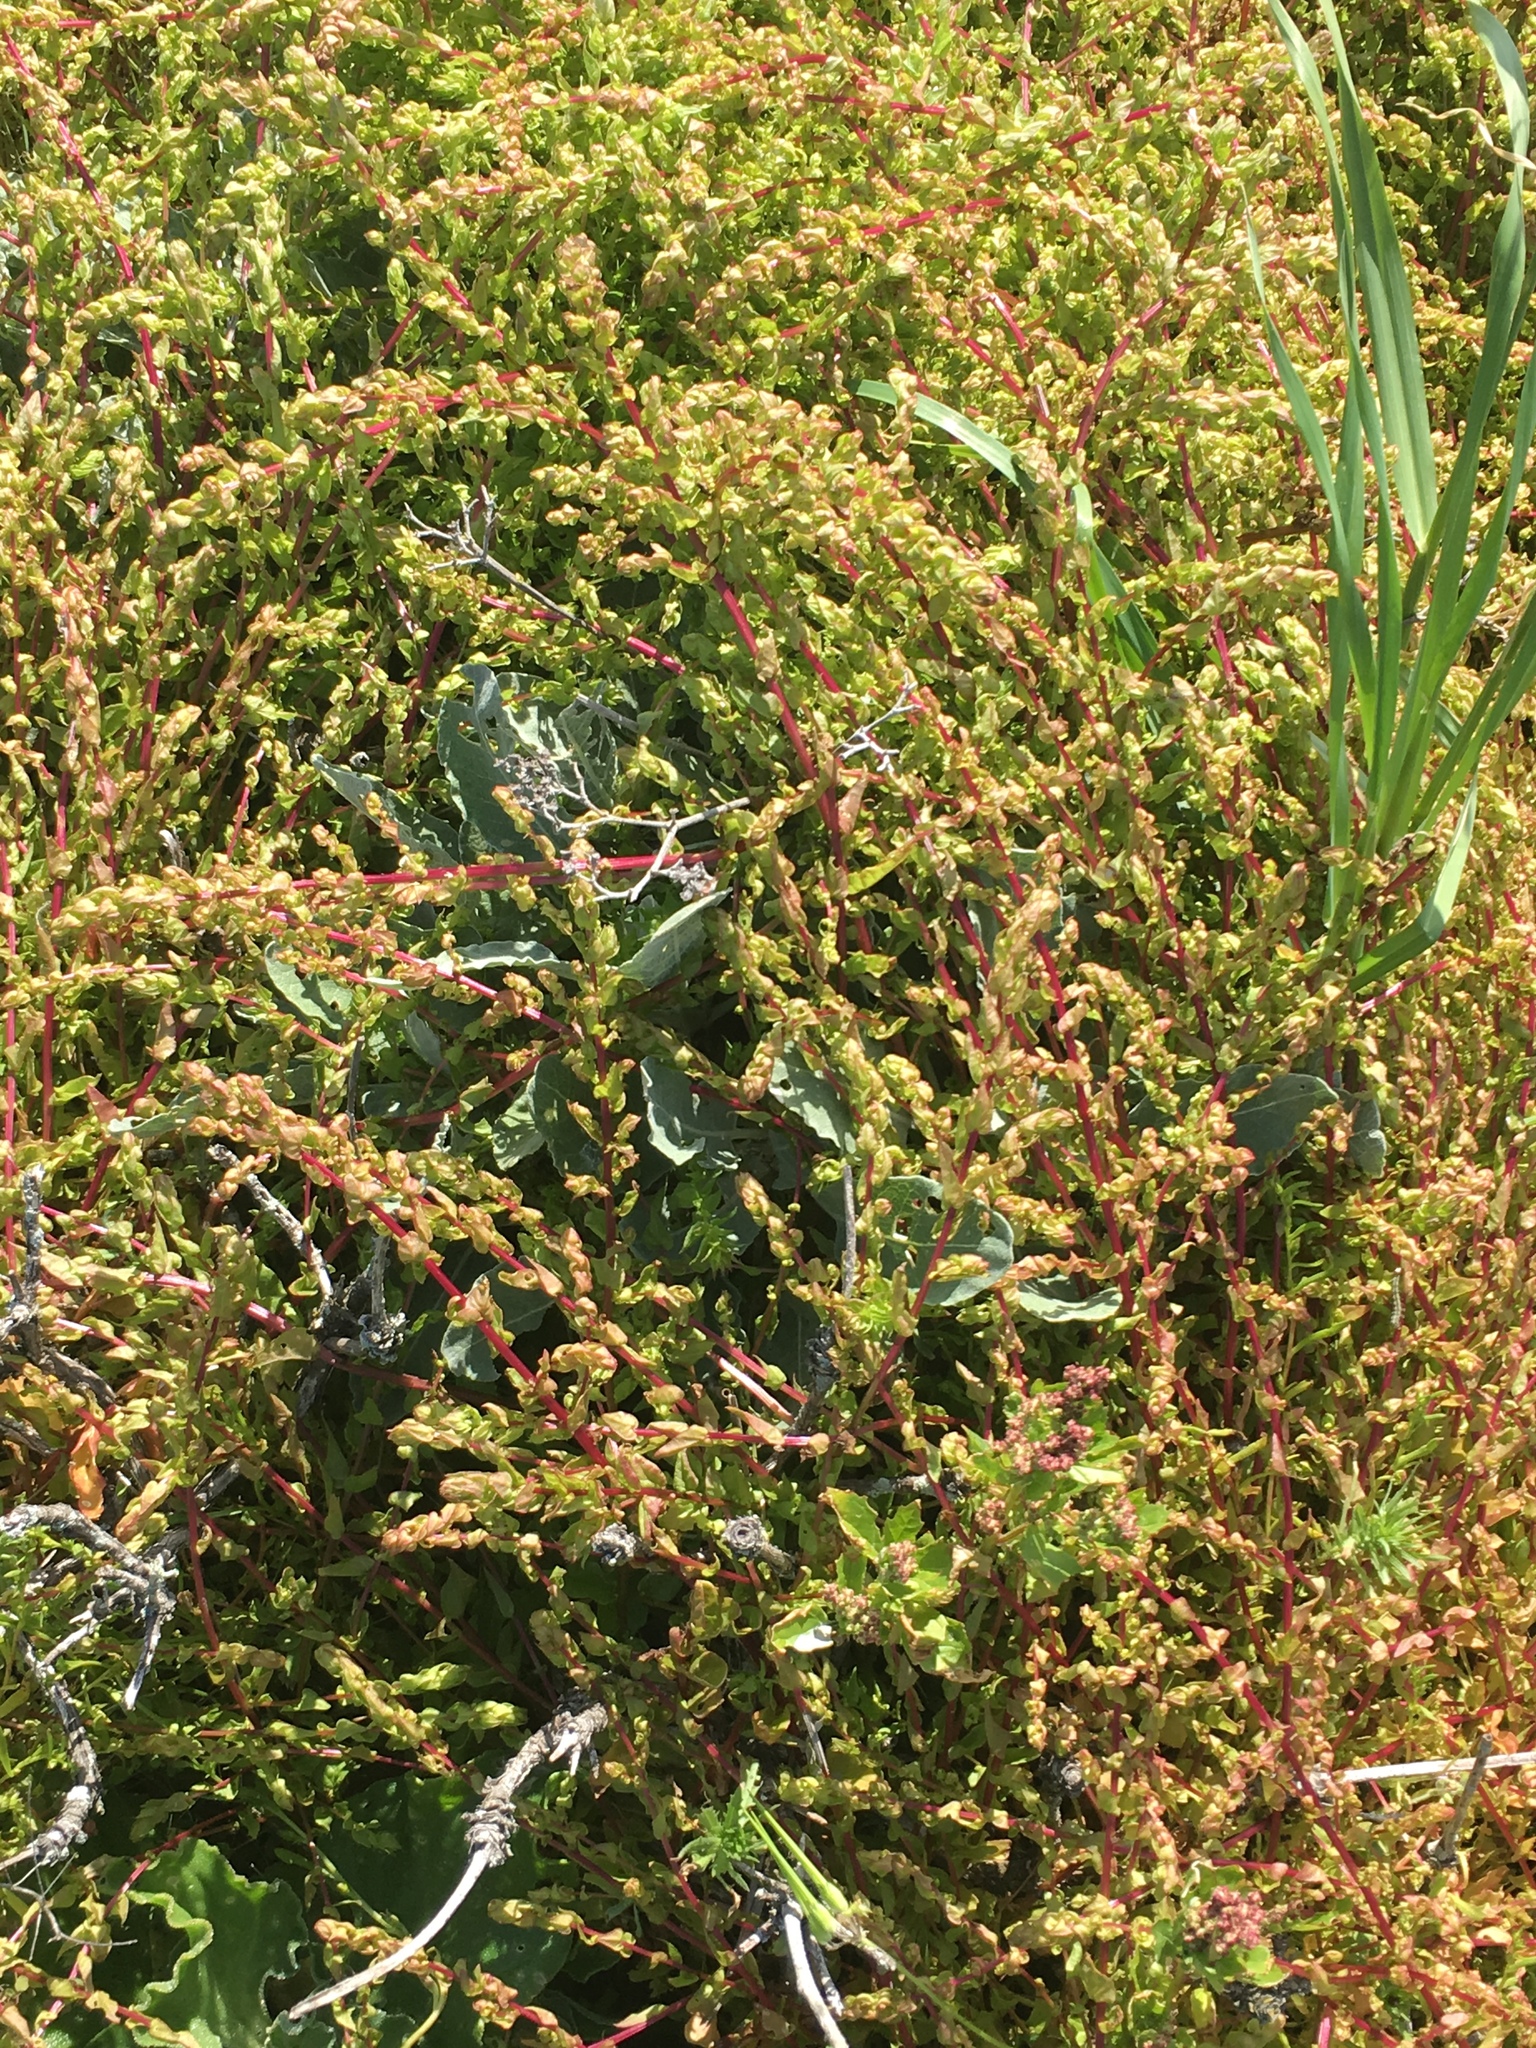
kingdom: Plantae
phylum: Tracheophyta
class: Magnoliopsida
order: Caryophyllales
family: Amaranthaceae
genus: Aphanisma
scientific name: Aphanisma blitoides
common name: Aphanisma
